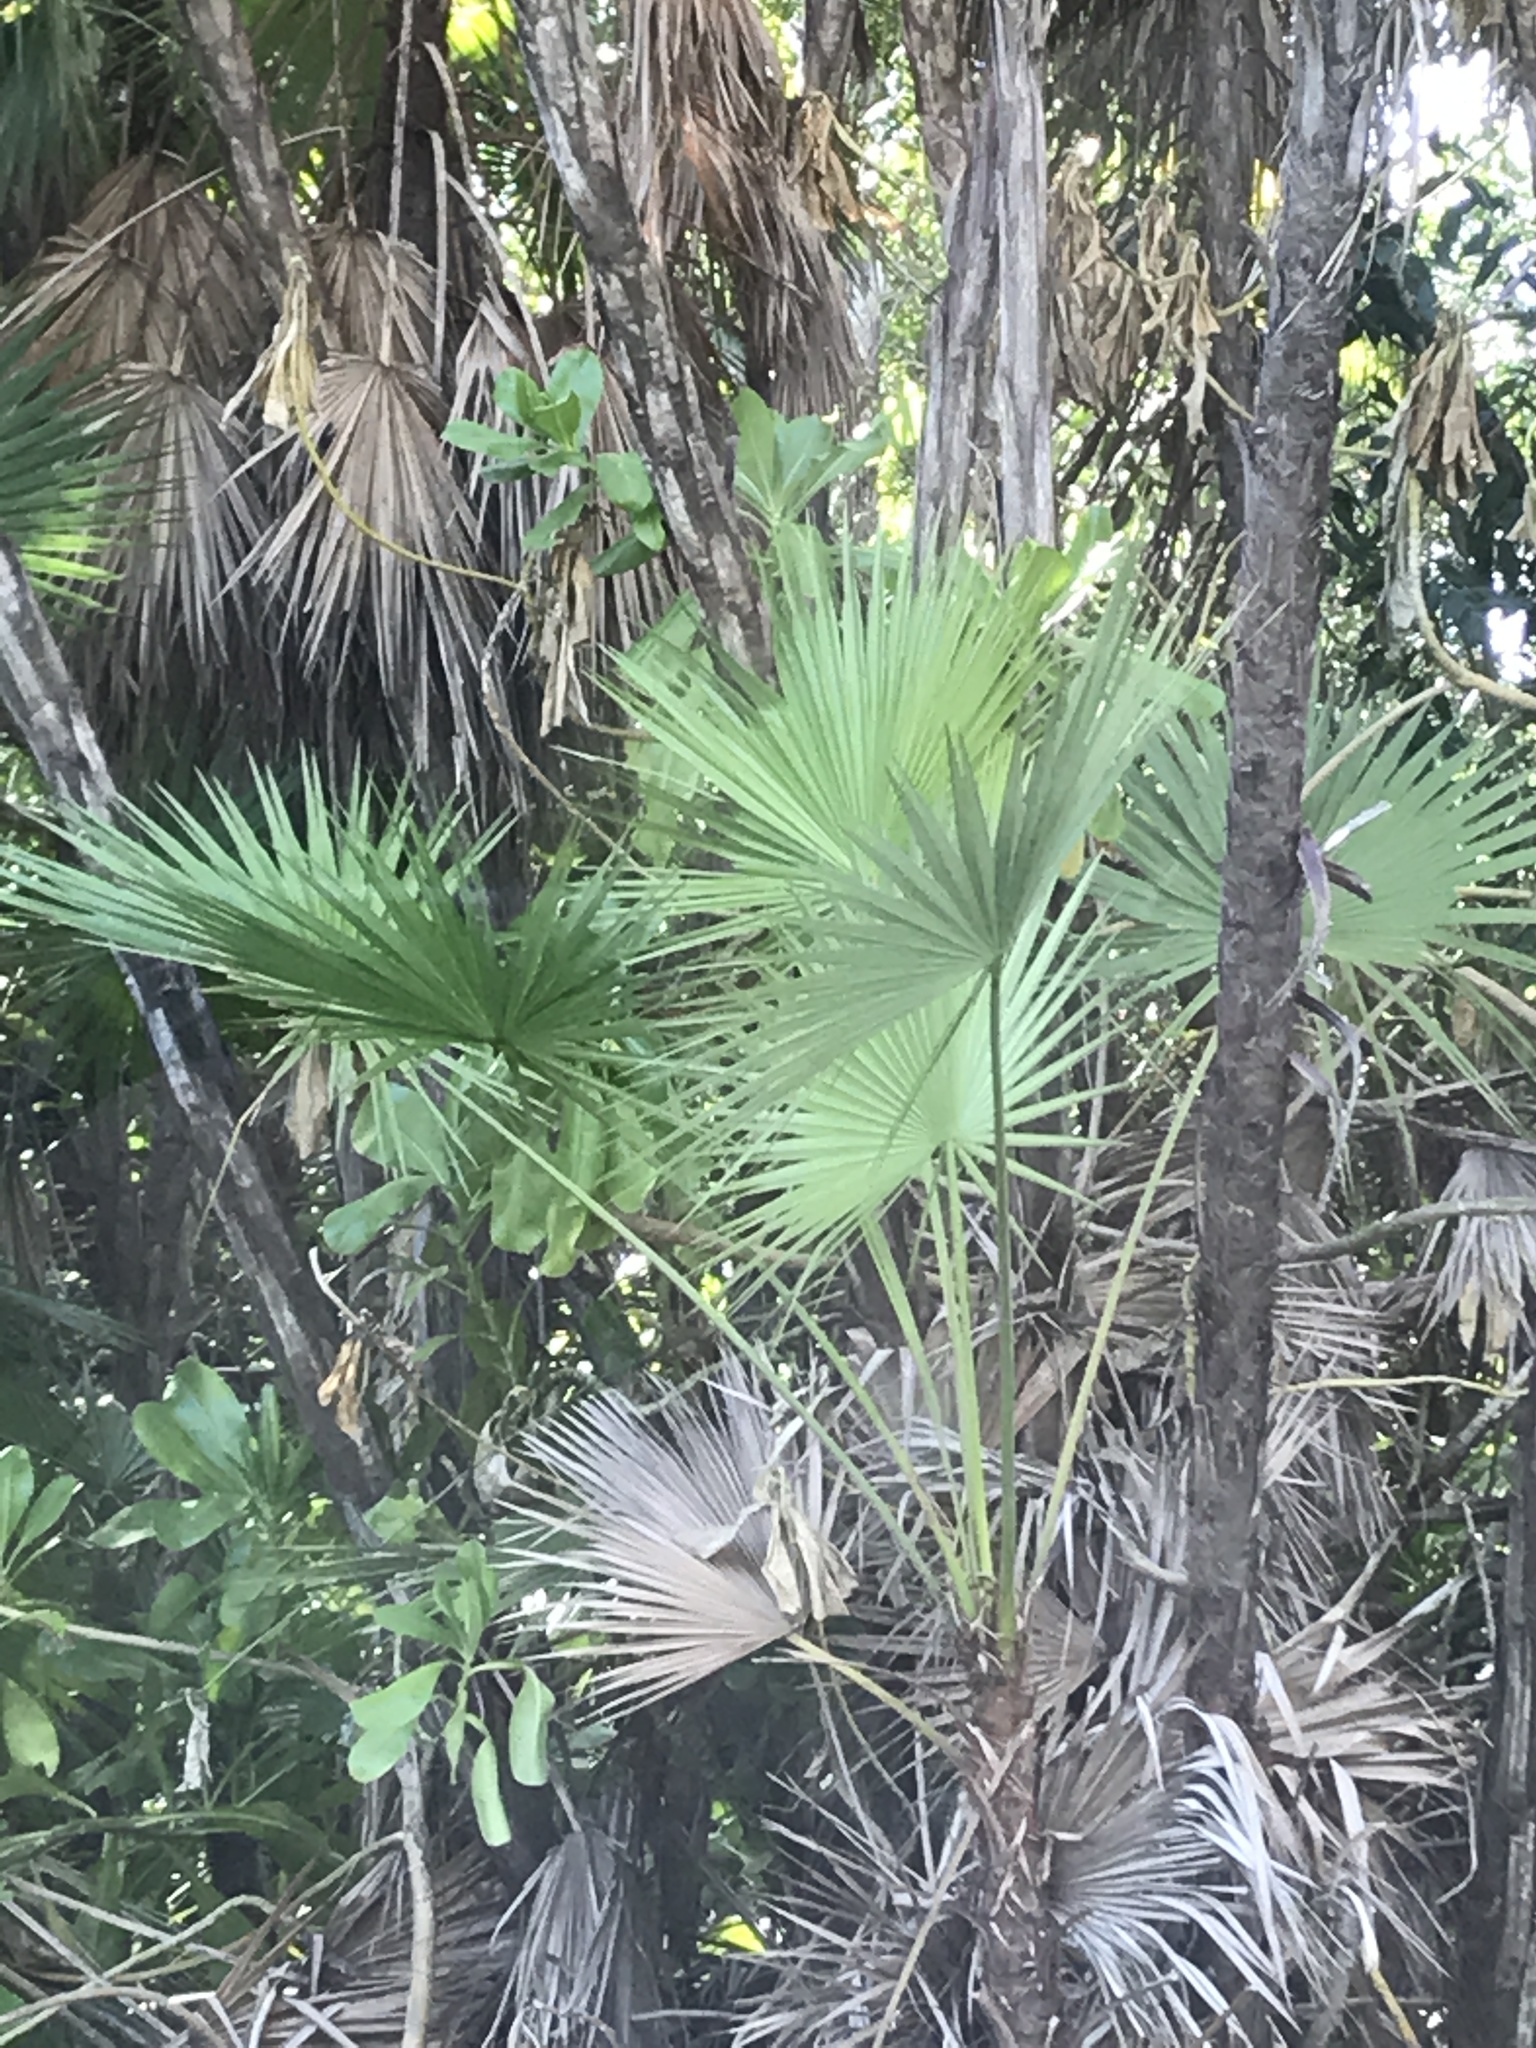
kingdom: Plantae
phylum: Tracheophyta
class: Liliopsida
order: Arecales
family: Arecaceae
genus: Acoelorraphe
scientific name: Acoelorraphe wrightii
